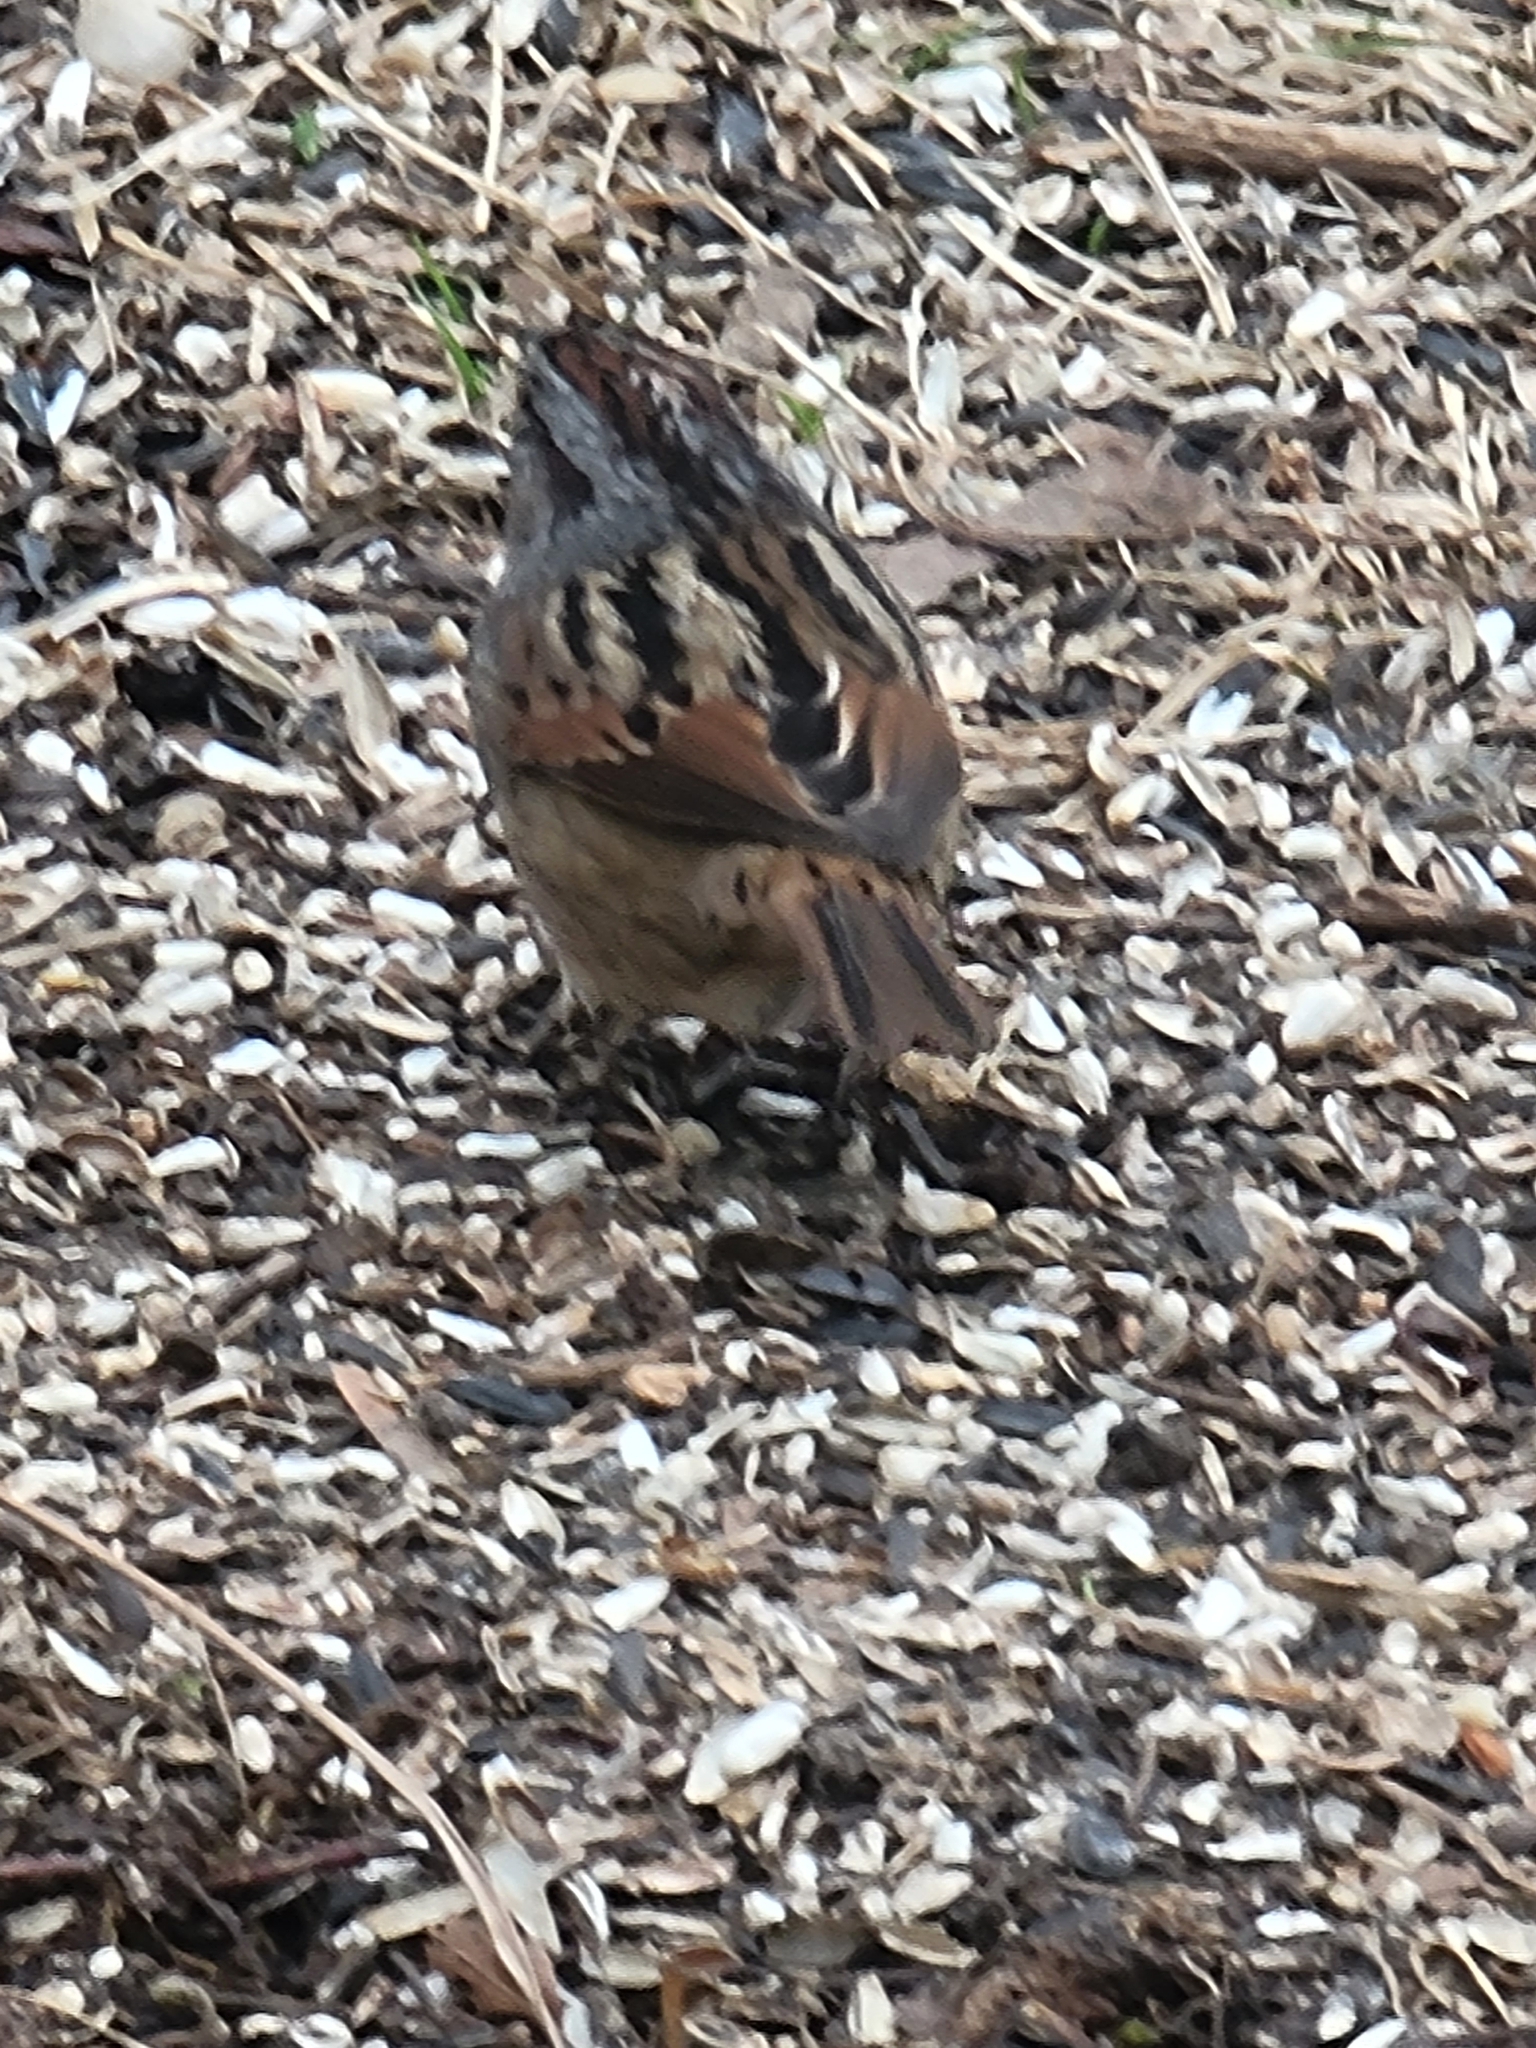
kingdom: Animalia
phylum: Chordata
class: Aves
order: Passeriformes
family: Passerellidae
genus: Melospiza
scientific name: Melospiza georgiana
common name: Swamp sparrow
